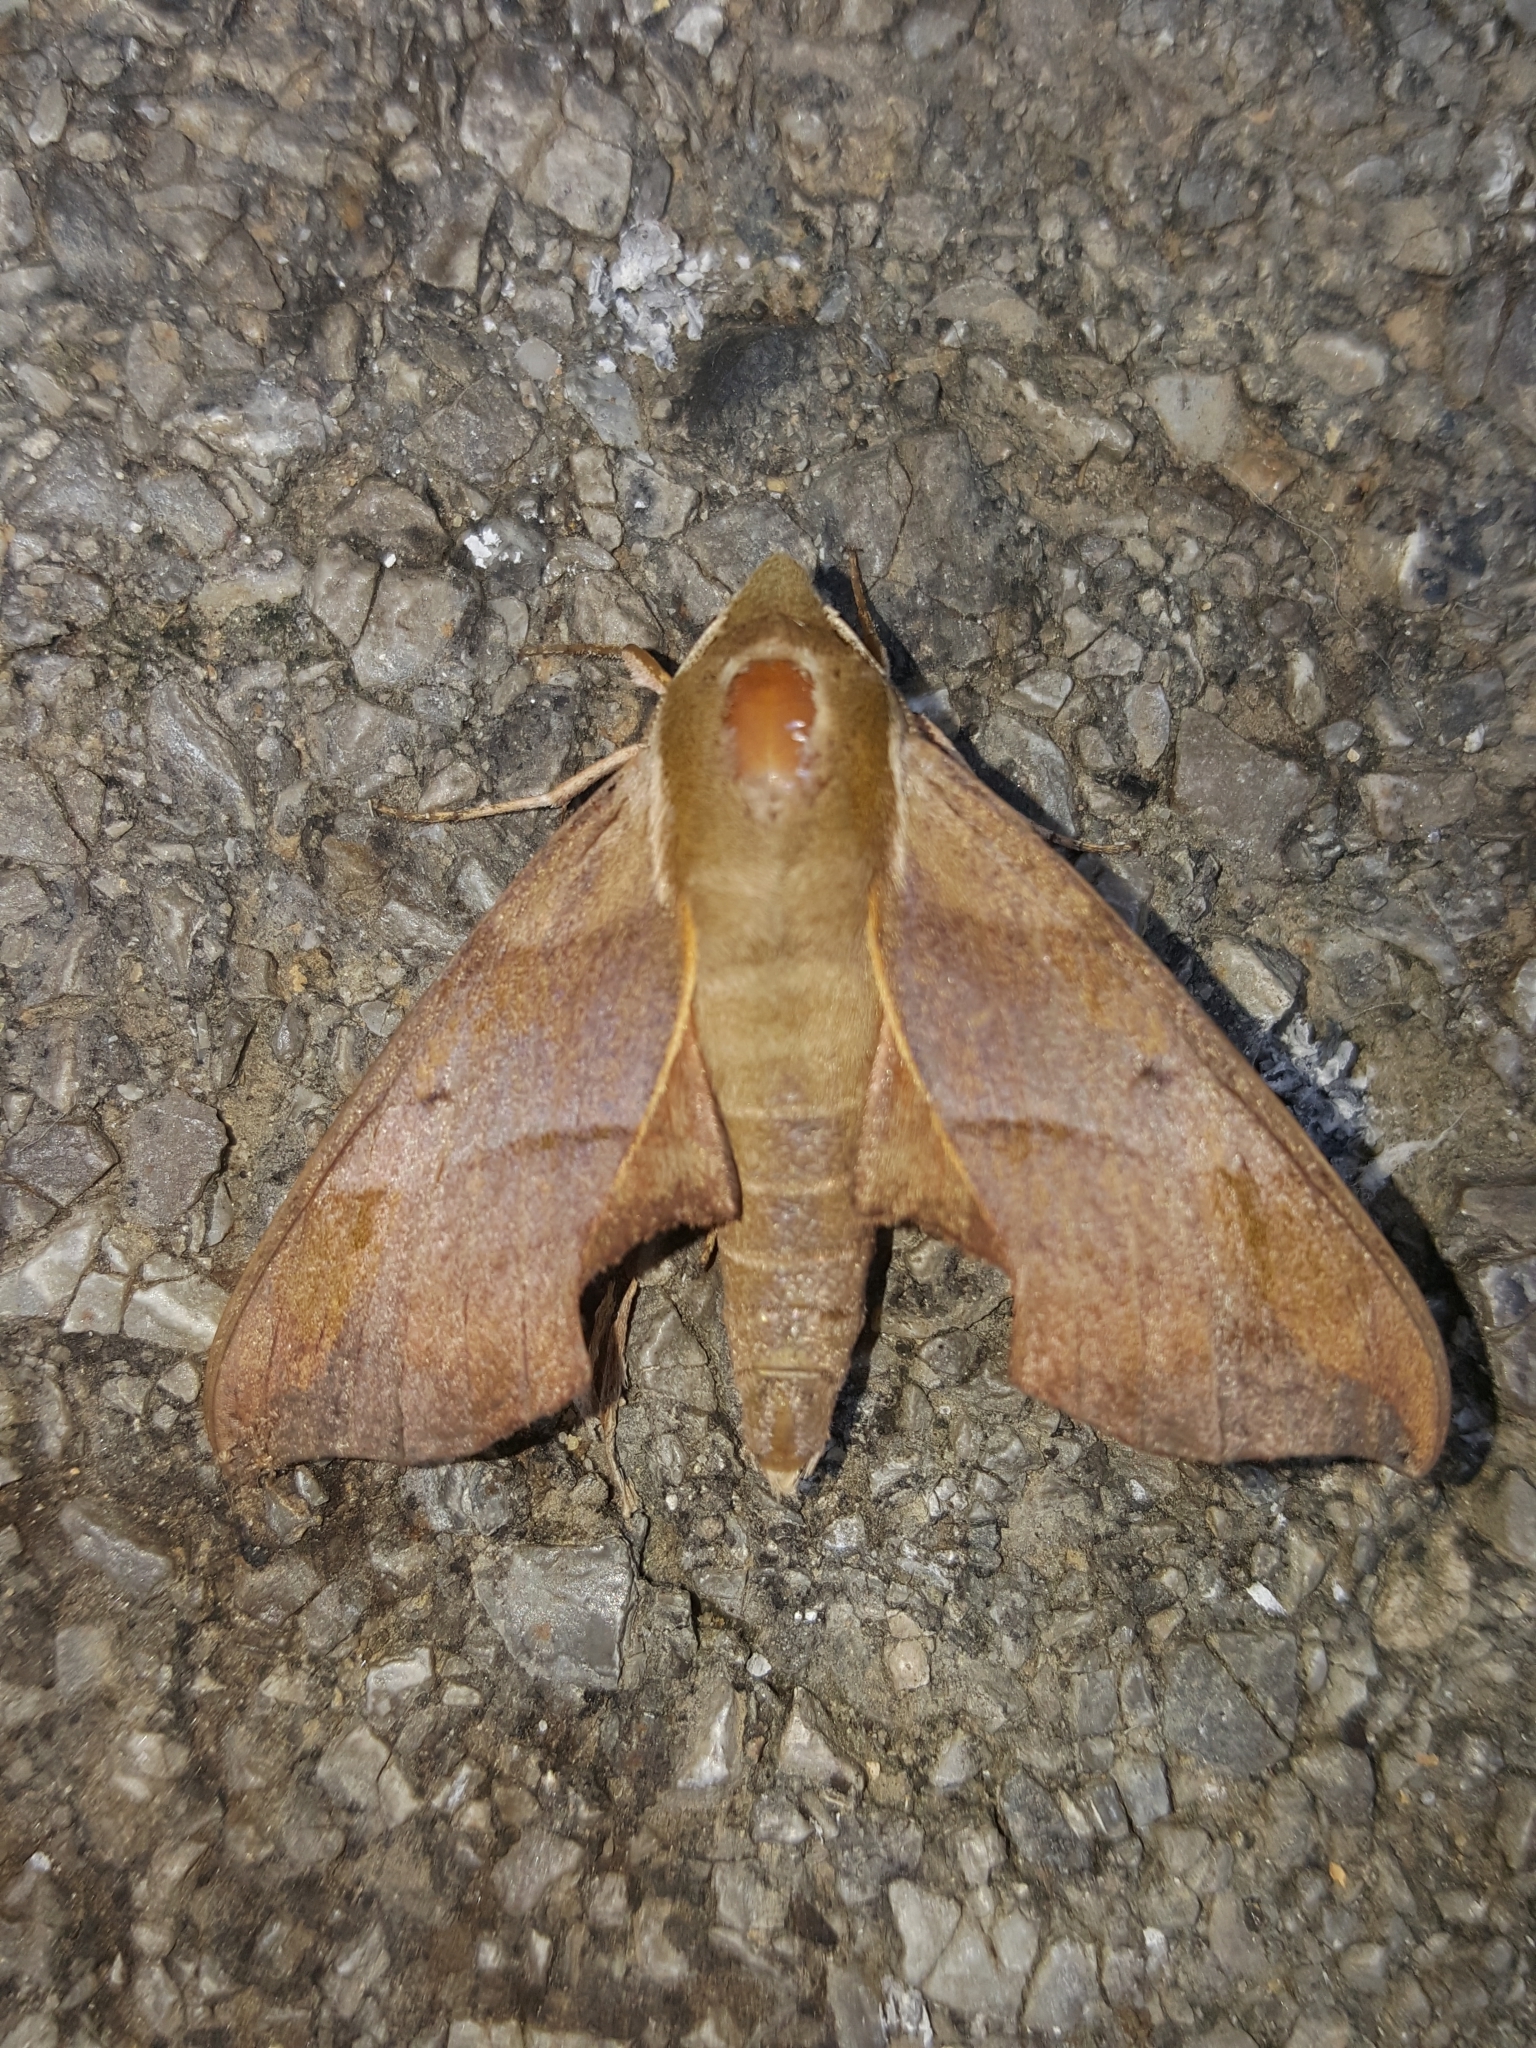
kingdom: Animalia
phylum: Arthropoda
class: Insecta
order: Lepidoptera
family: Sphingidae
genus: Darapsa
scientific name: Darapsa myron
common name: Hog sphinx
